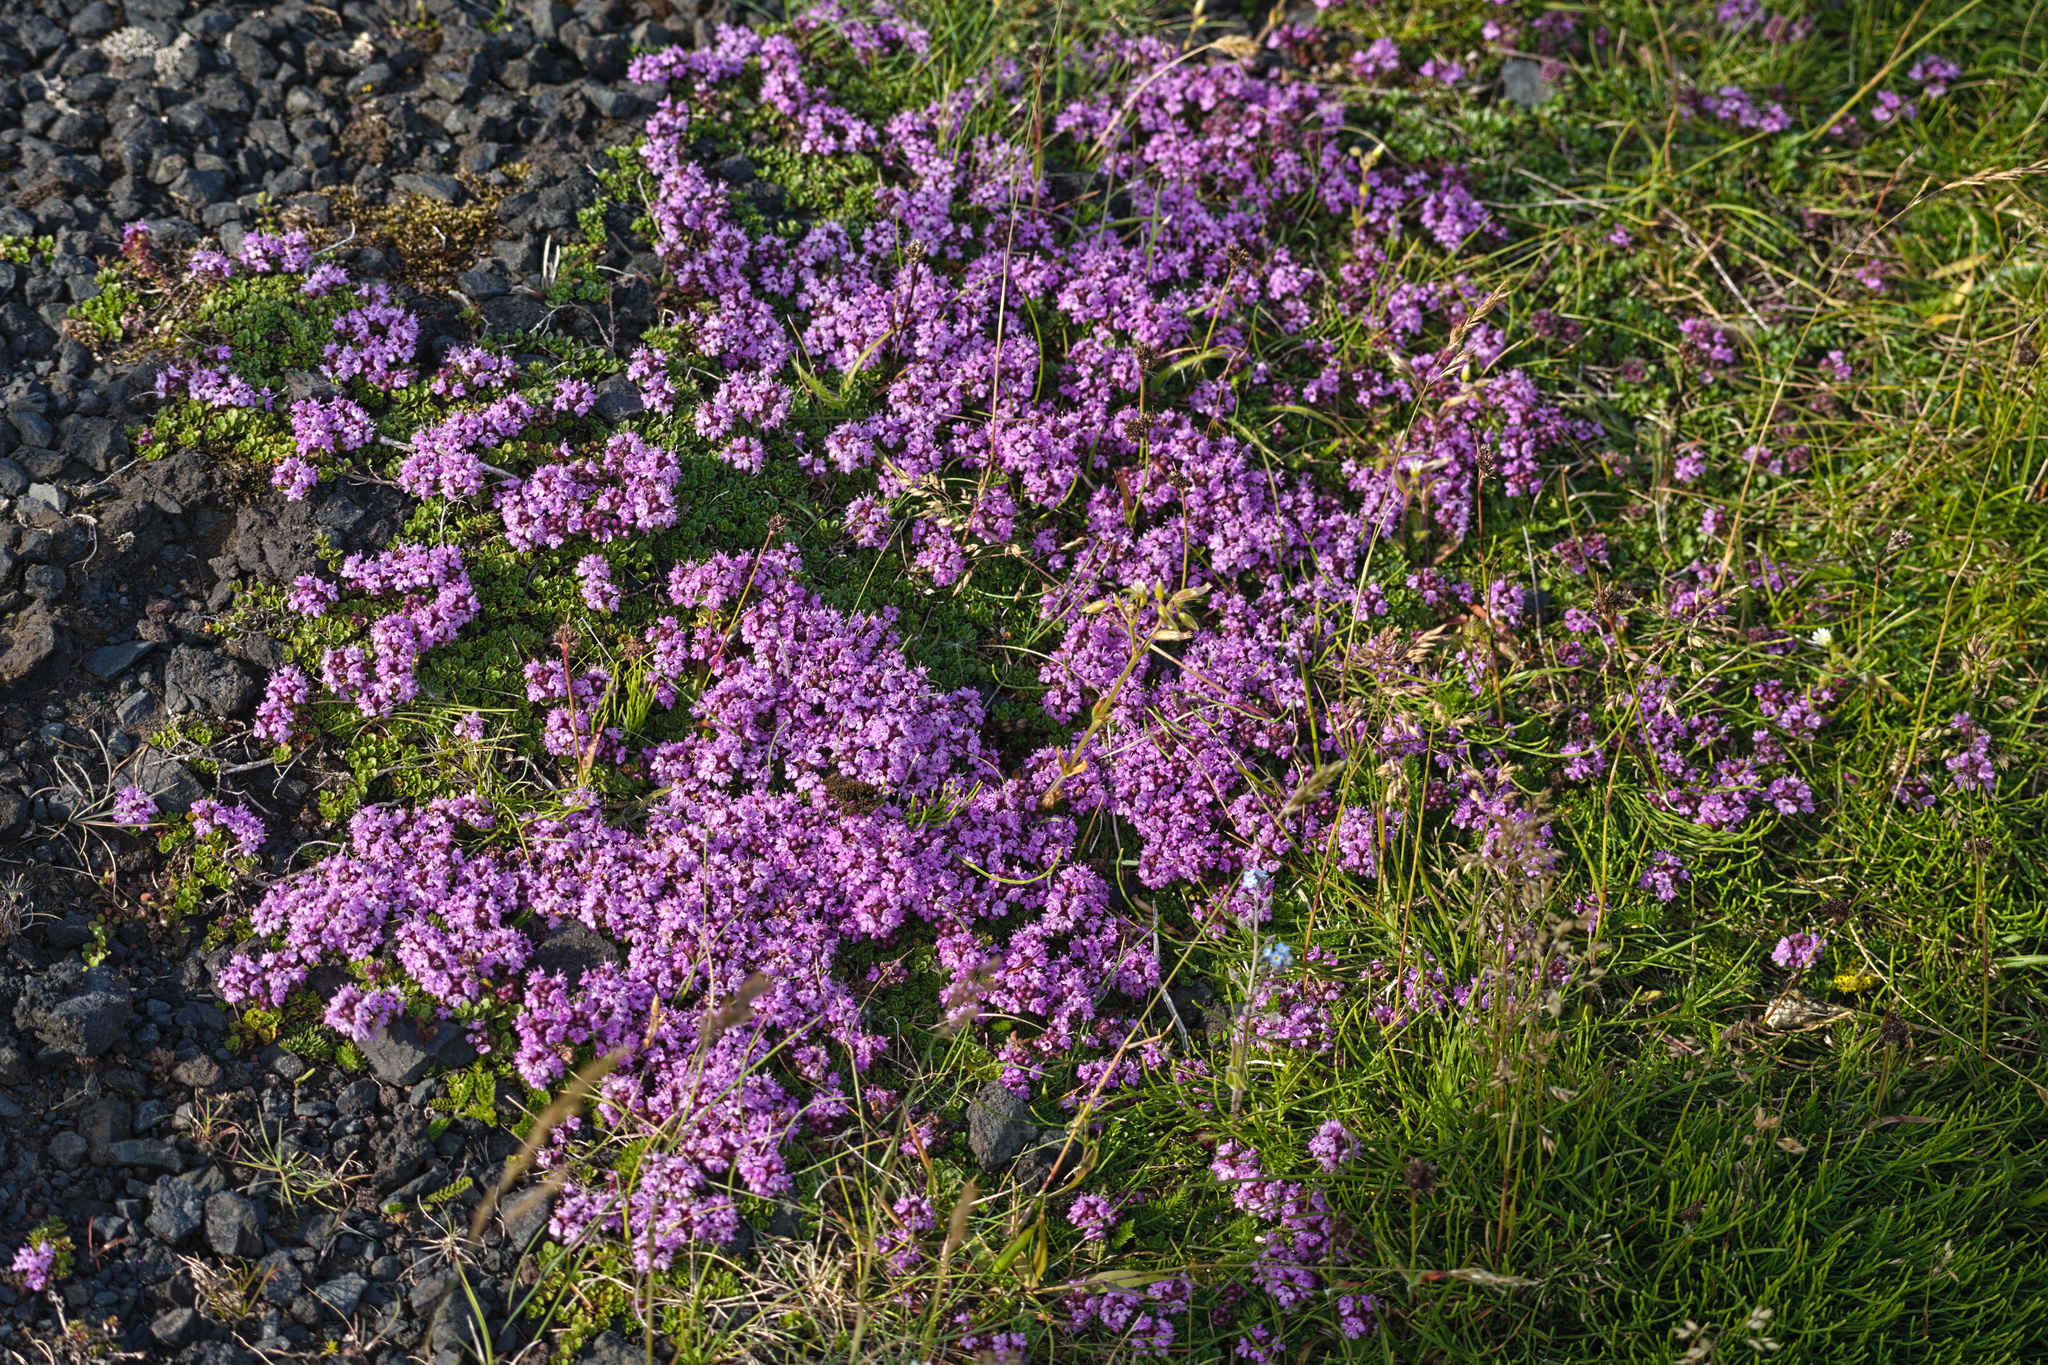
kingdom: Plantae
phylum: Tracheophyta
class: Magnoliopsida
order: Lamiales
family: Lamiaceae
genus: Thymus
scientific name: Thymus praecox
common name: Wild thyme
